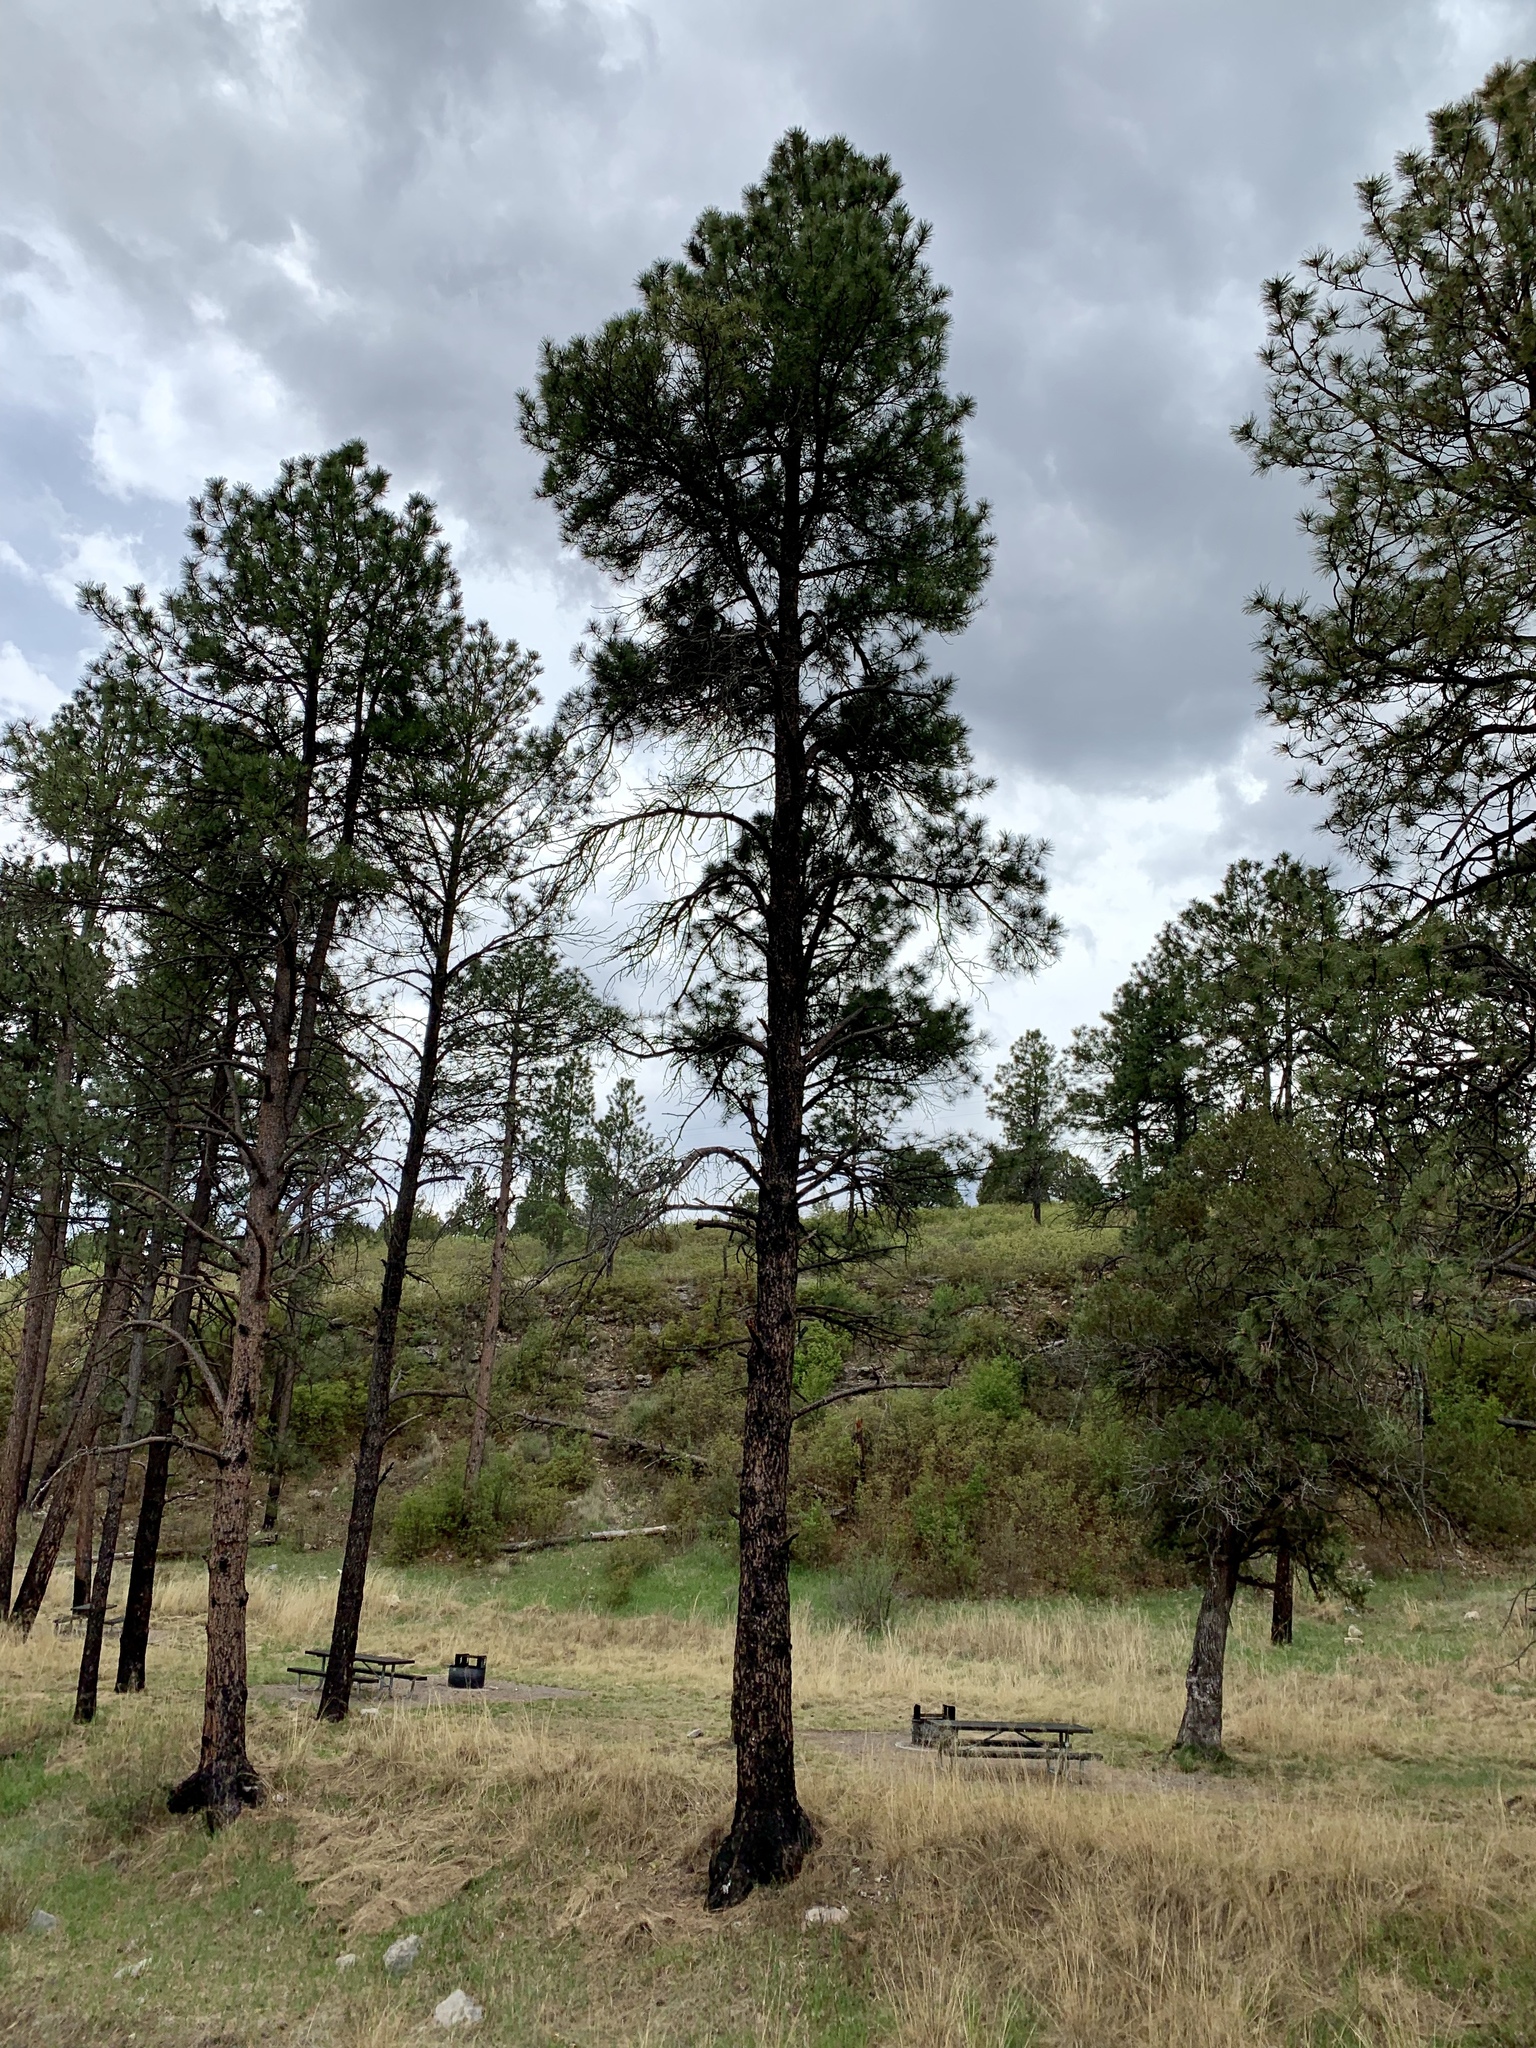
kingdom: Plantae
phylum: Tracheophyta
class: Pinopsida
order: Pinales
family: Pinaceae
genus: Pinus
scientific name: Pinus ponderosa
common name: Western yellow-pine
